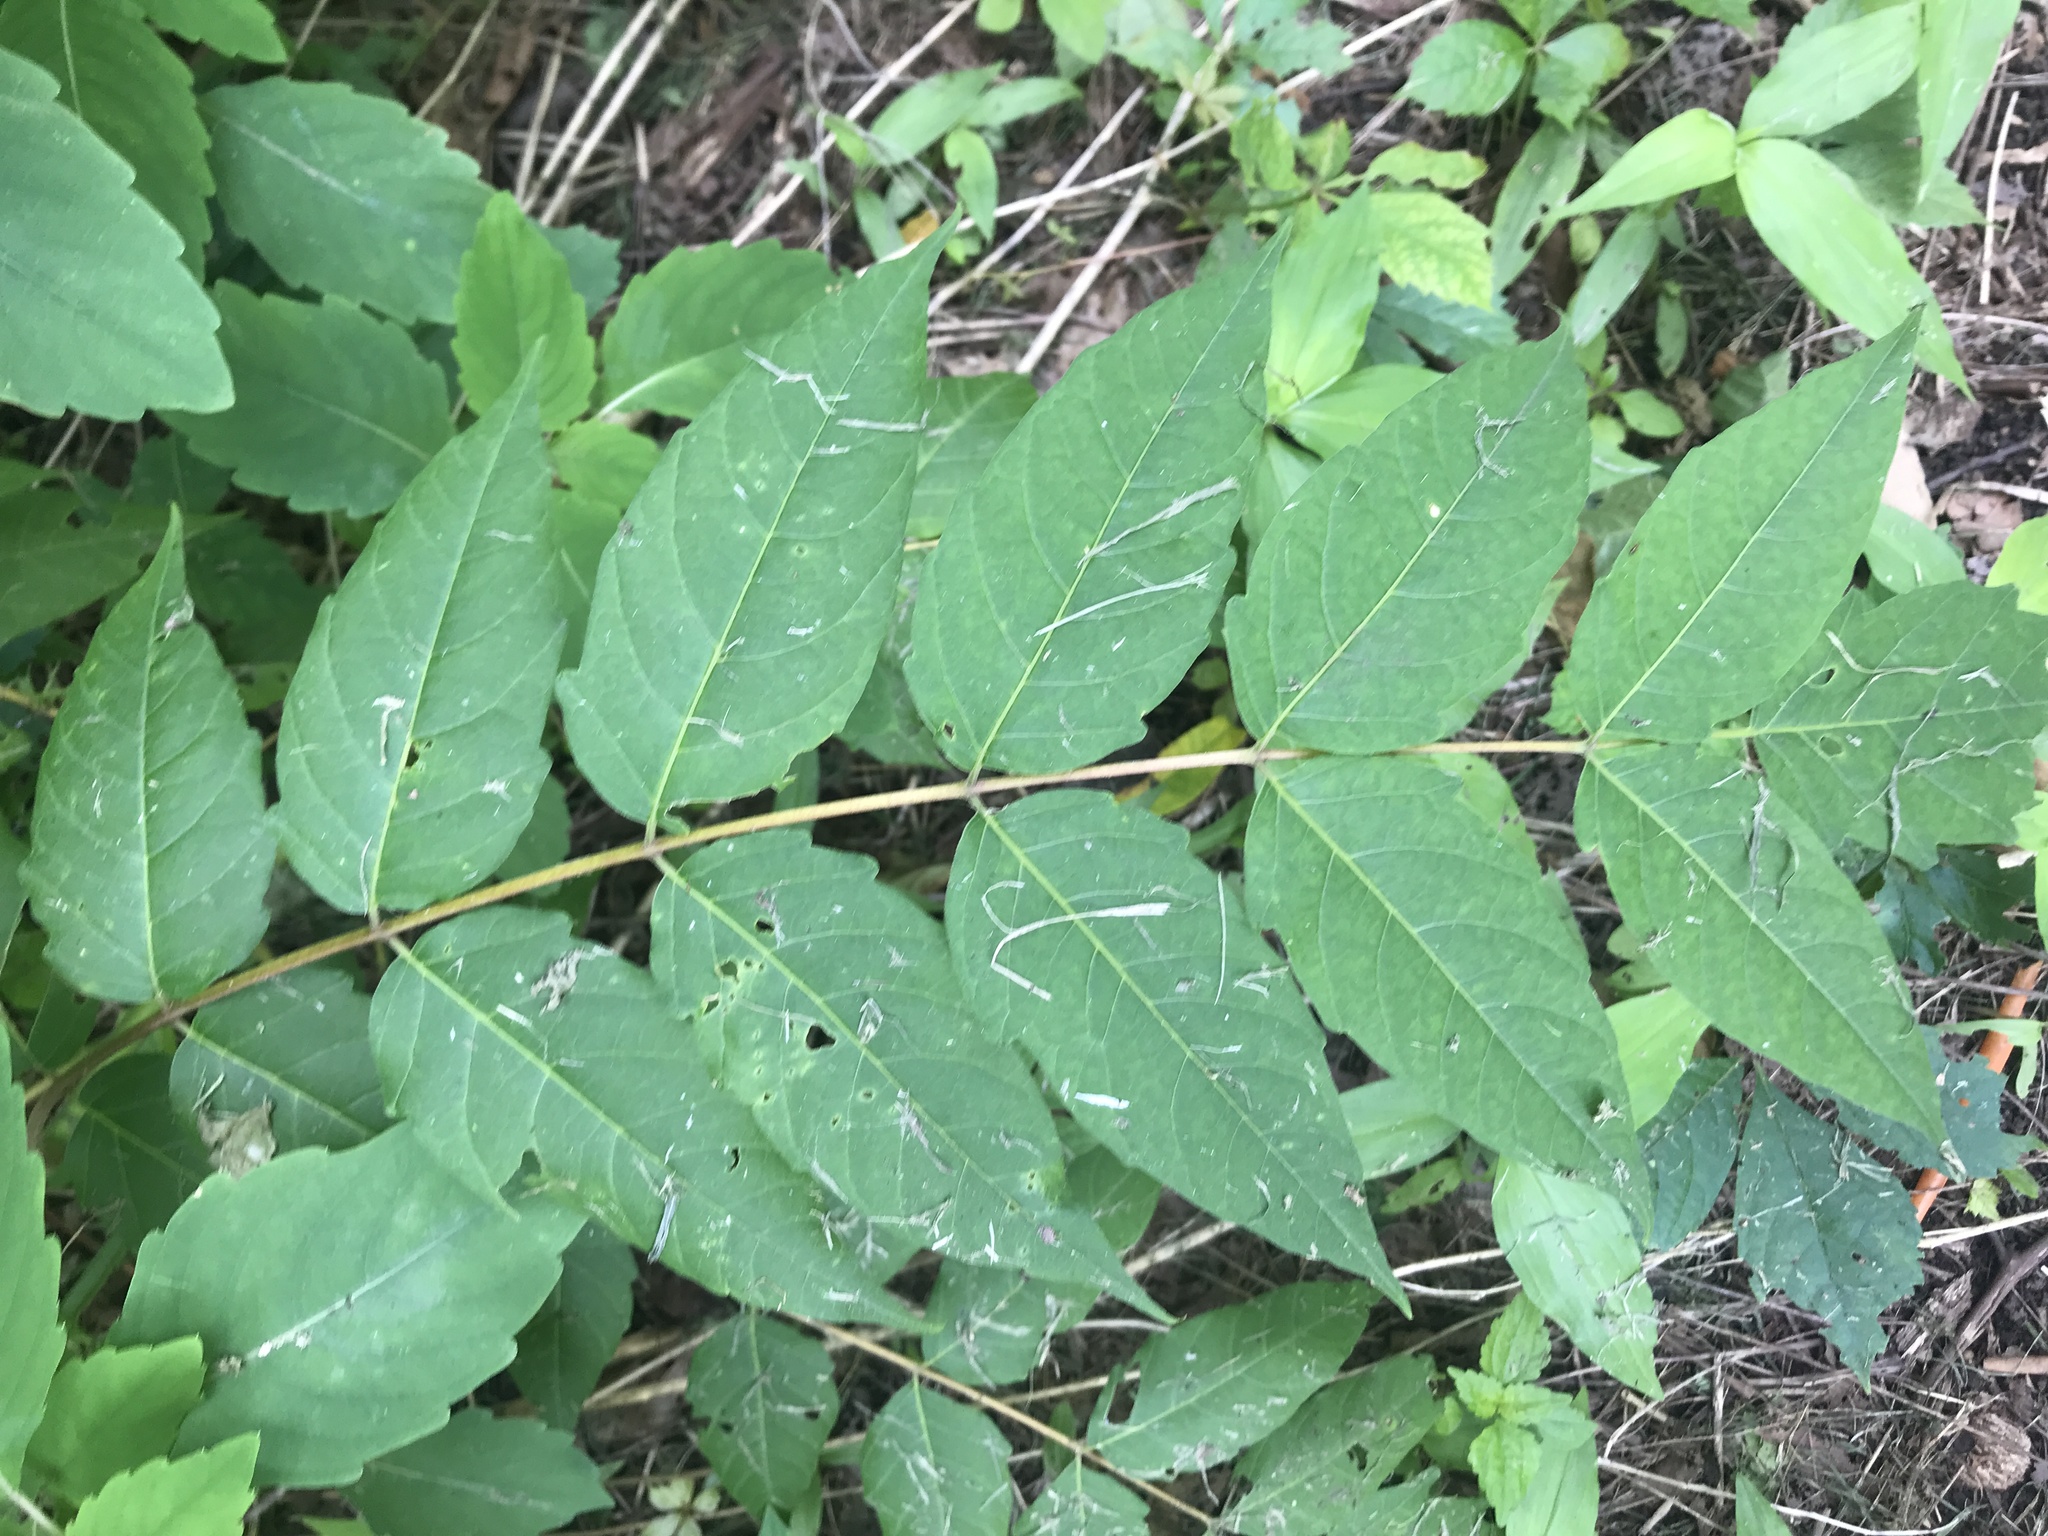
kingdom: Plantae
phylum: Tracheophyta
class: Magnoliopsida
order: Sapindales
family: Simaroubaceae
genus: Ailanthus
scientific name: Ailanthus altissima
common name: Tree-of-heaven
